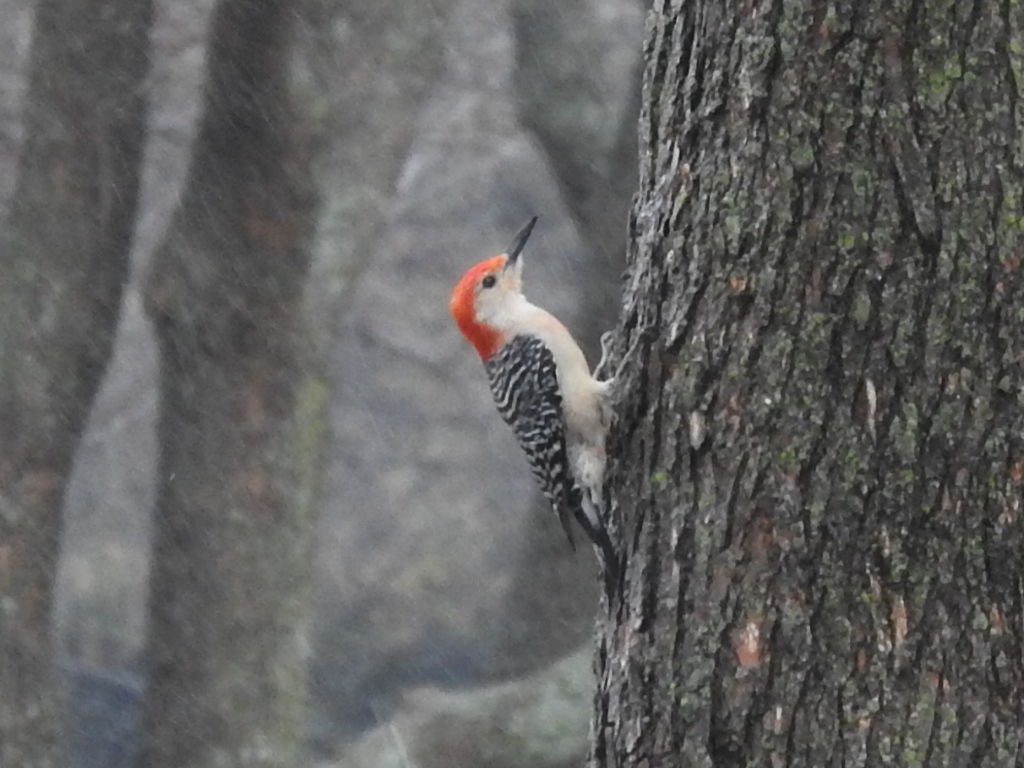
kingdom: Animalia
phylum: Chordata
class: Aves
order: Piciformes
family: Picidae
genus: Melanerpes
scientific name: Melanerpes carolinus
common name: Red-bellied woodpecker
